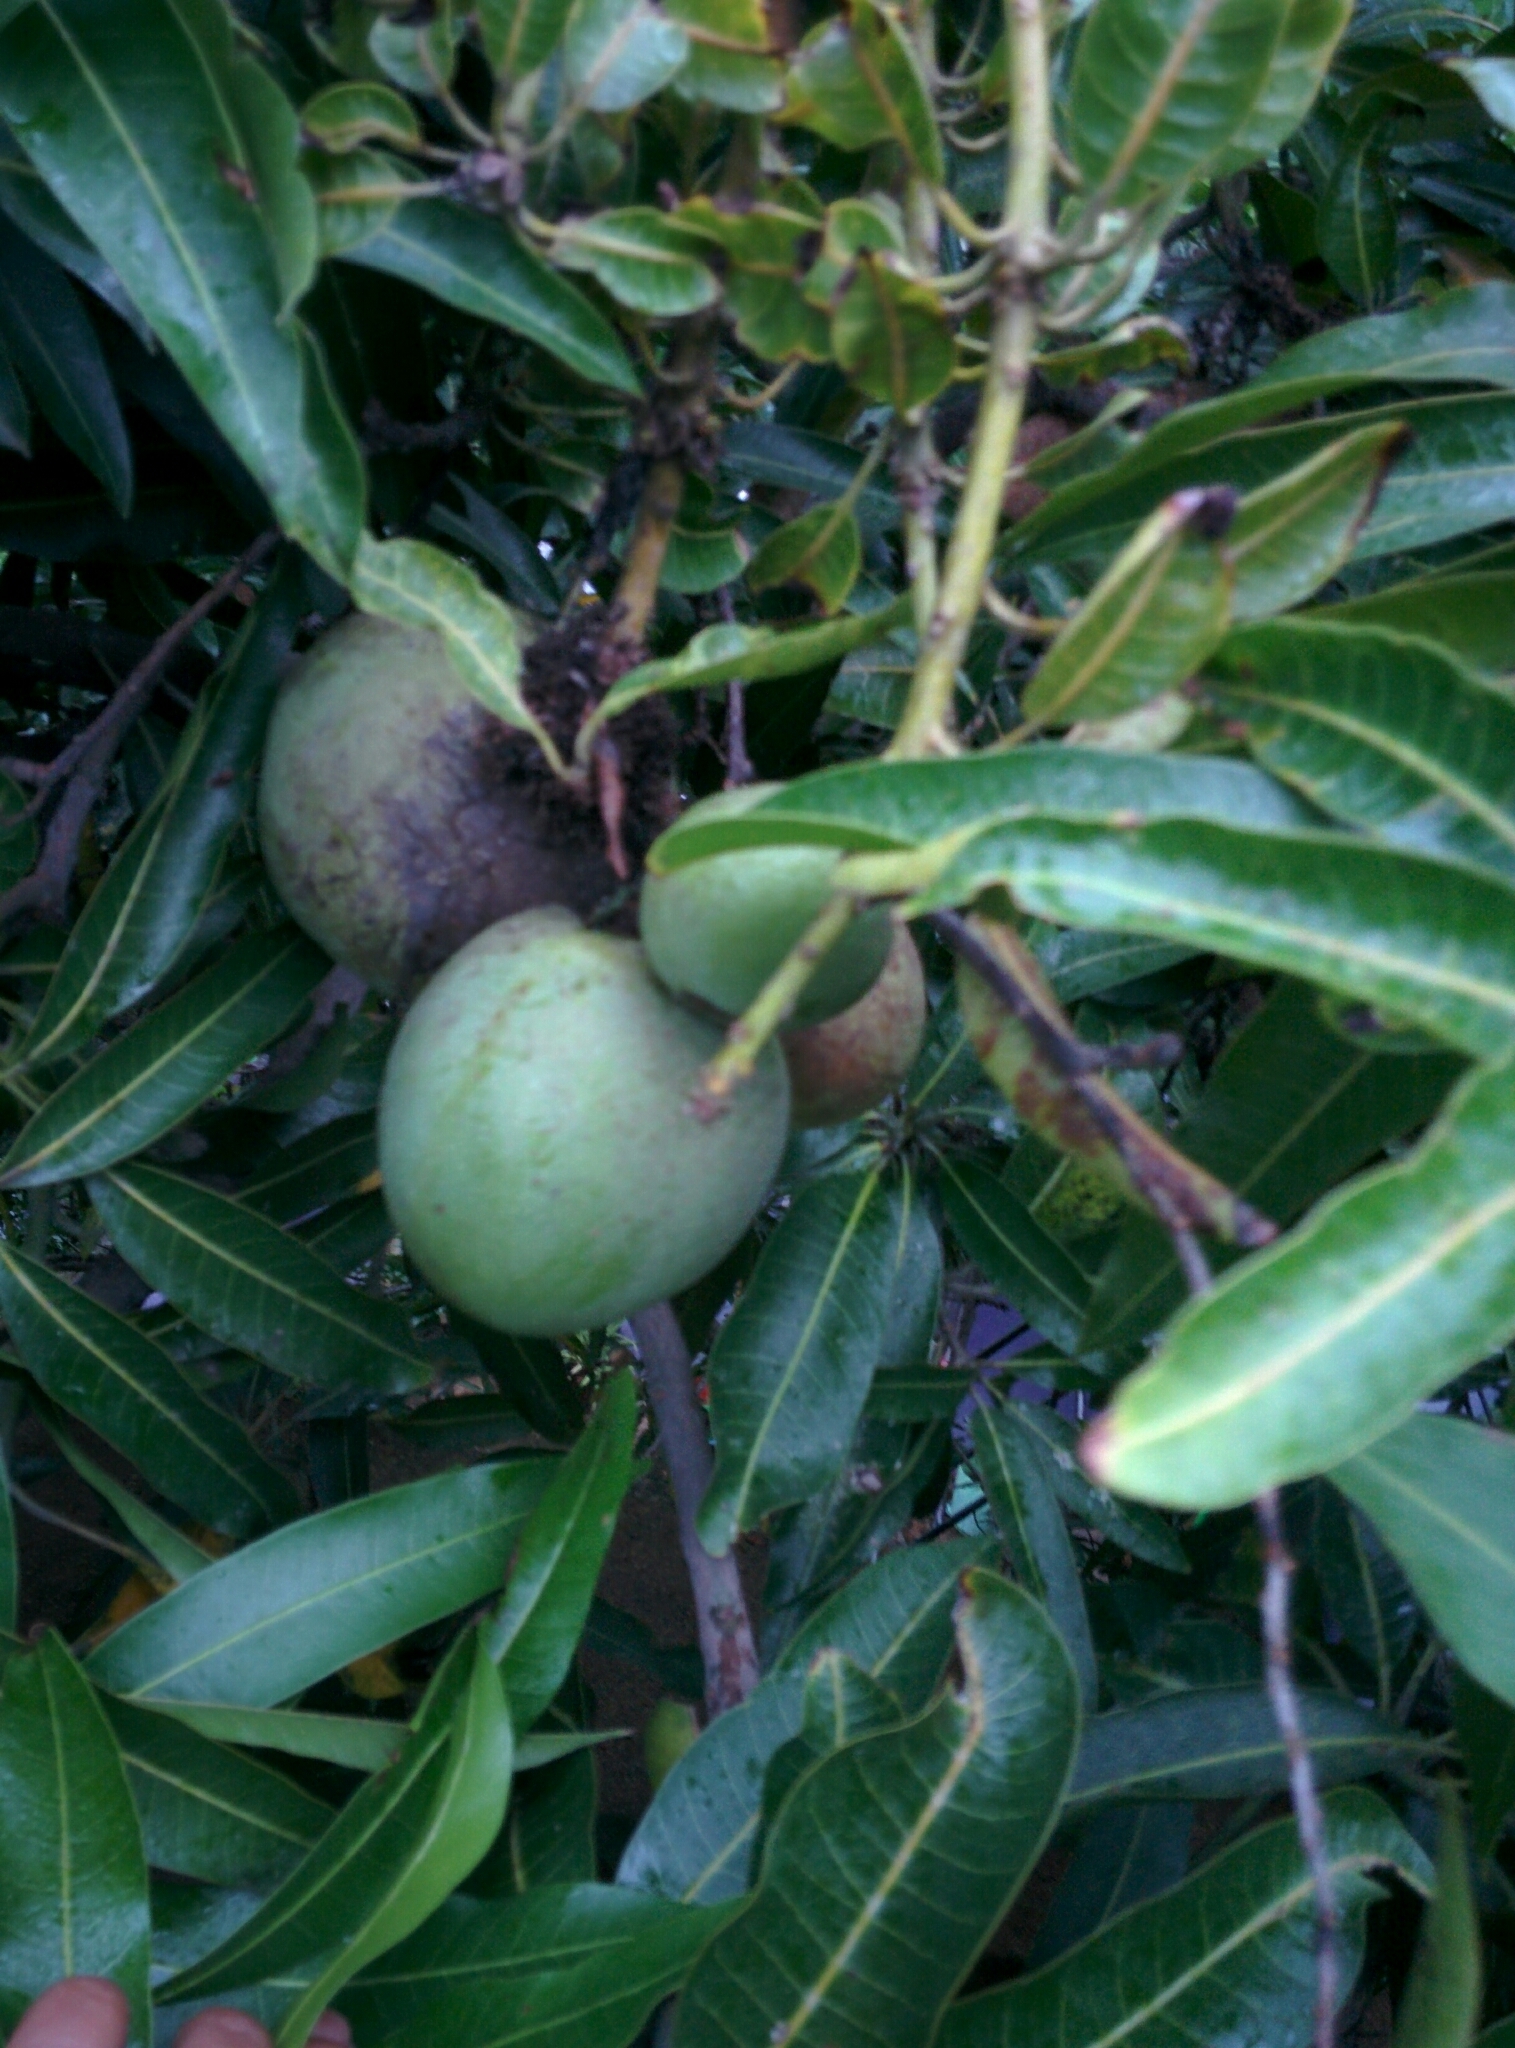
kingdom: Plantae
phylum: Tracheophyta
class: Magnoliopsida
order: Sapindales
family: Anacardiaceae
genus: Mangifera
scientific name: Mangifera indica
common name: Mango
